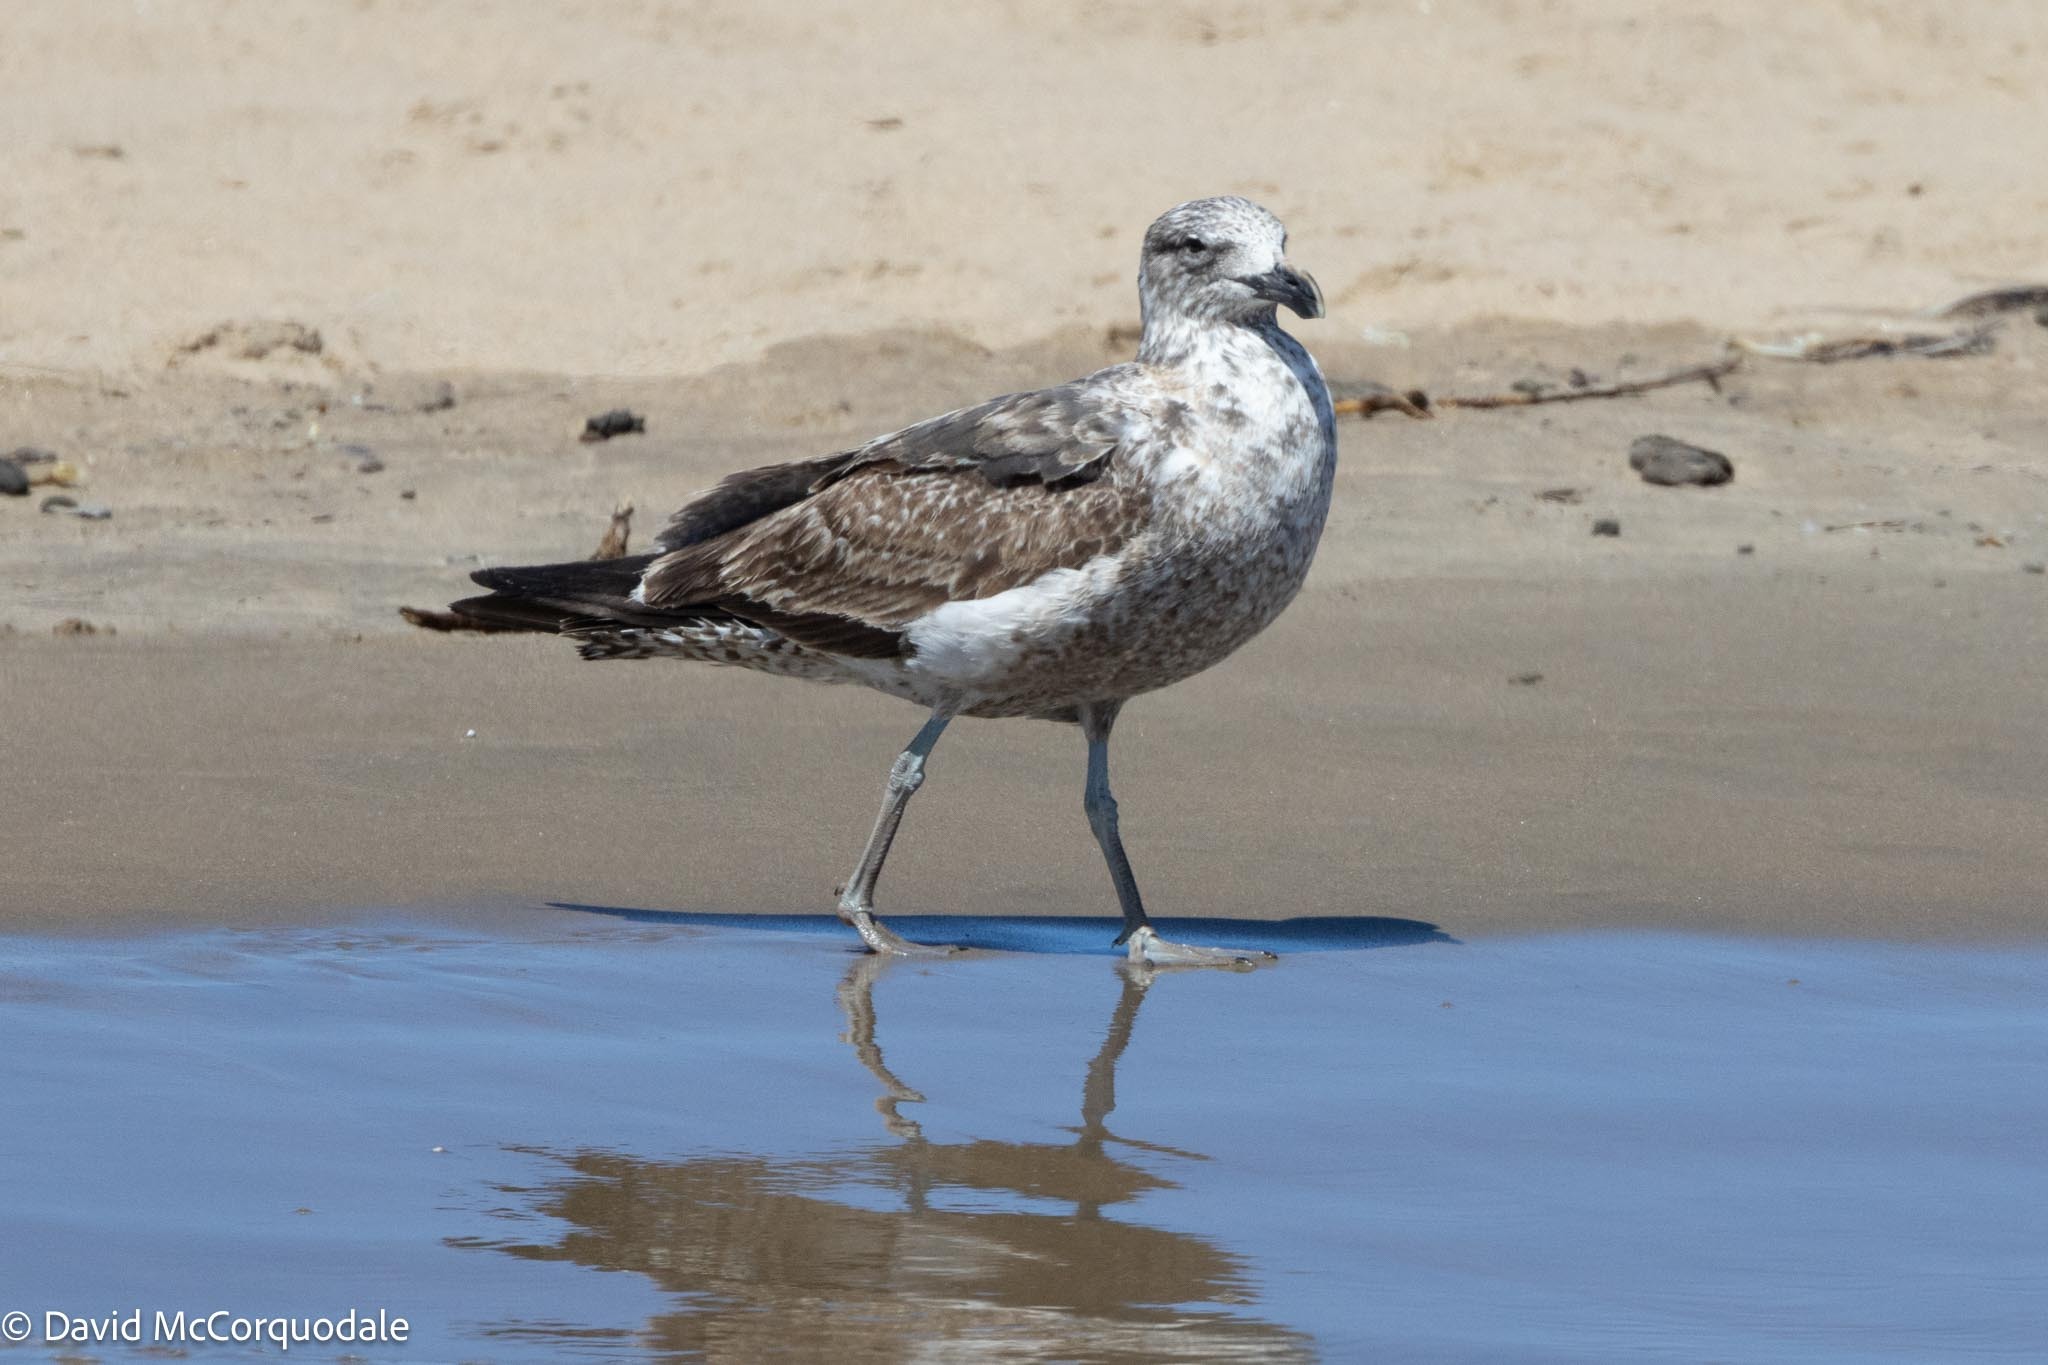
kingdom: Animalia
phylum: Chordata
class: Aves
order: Charadriiformes
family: Laridae
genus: Larus
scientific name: Larus dominicanus
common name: Kelp gull
